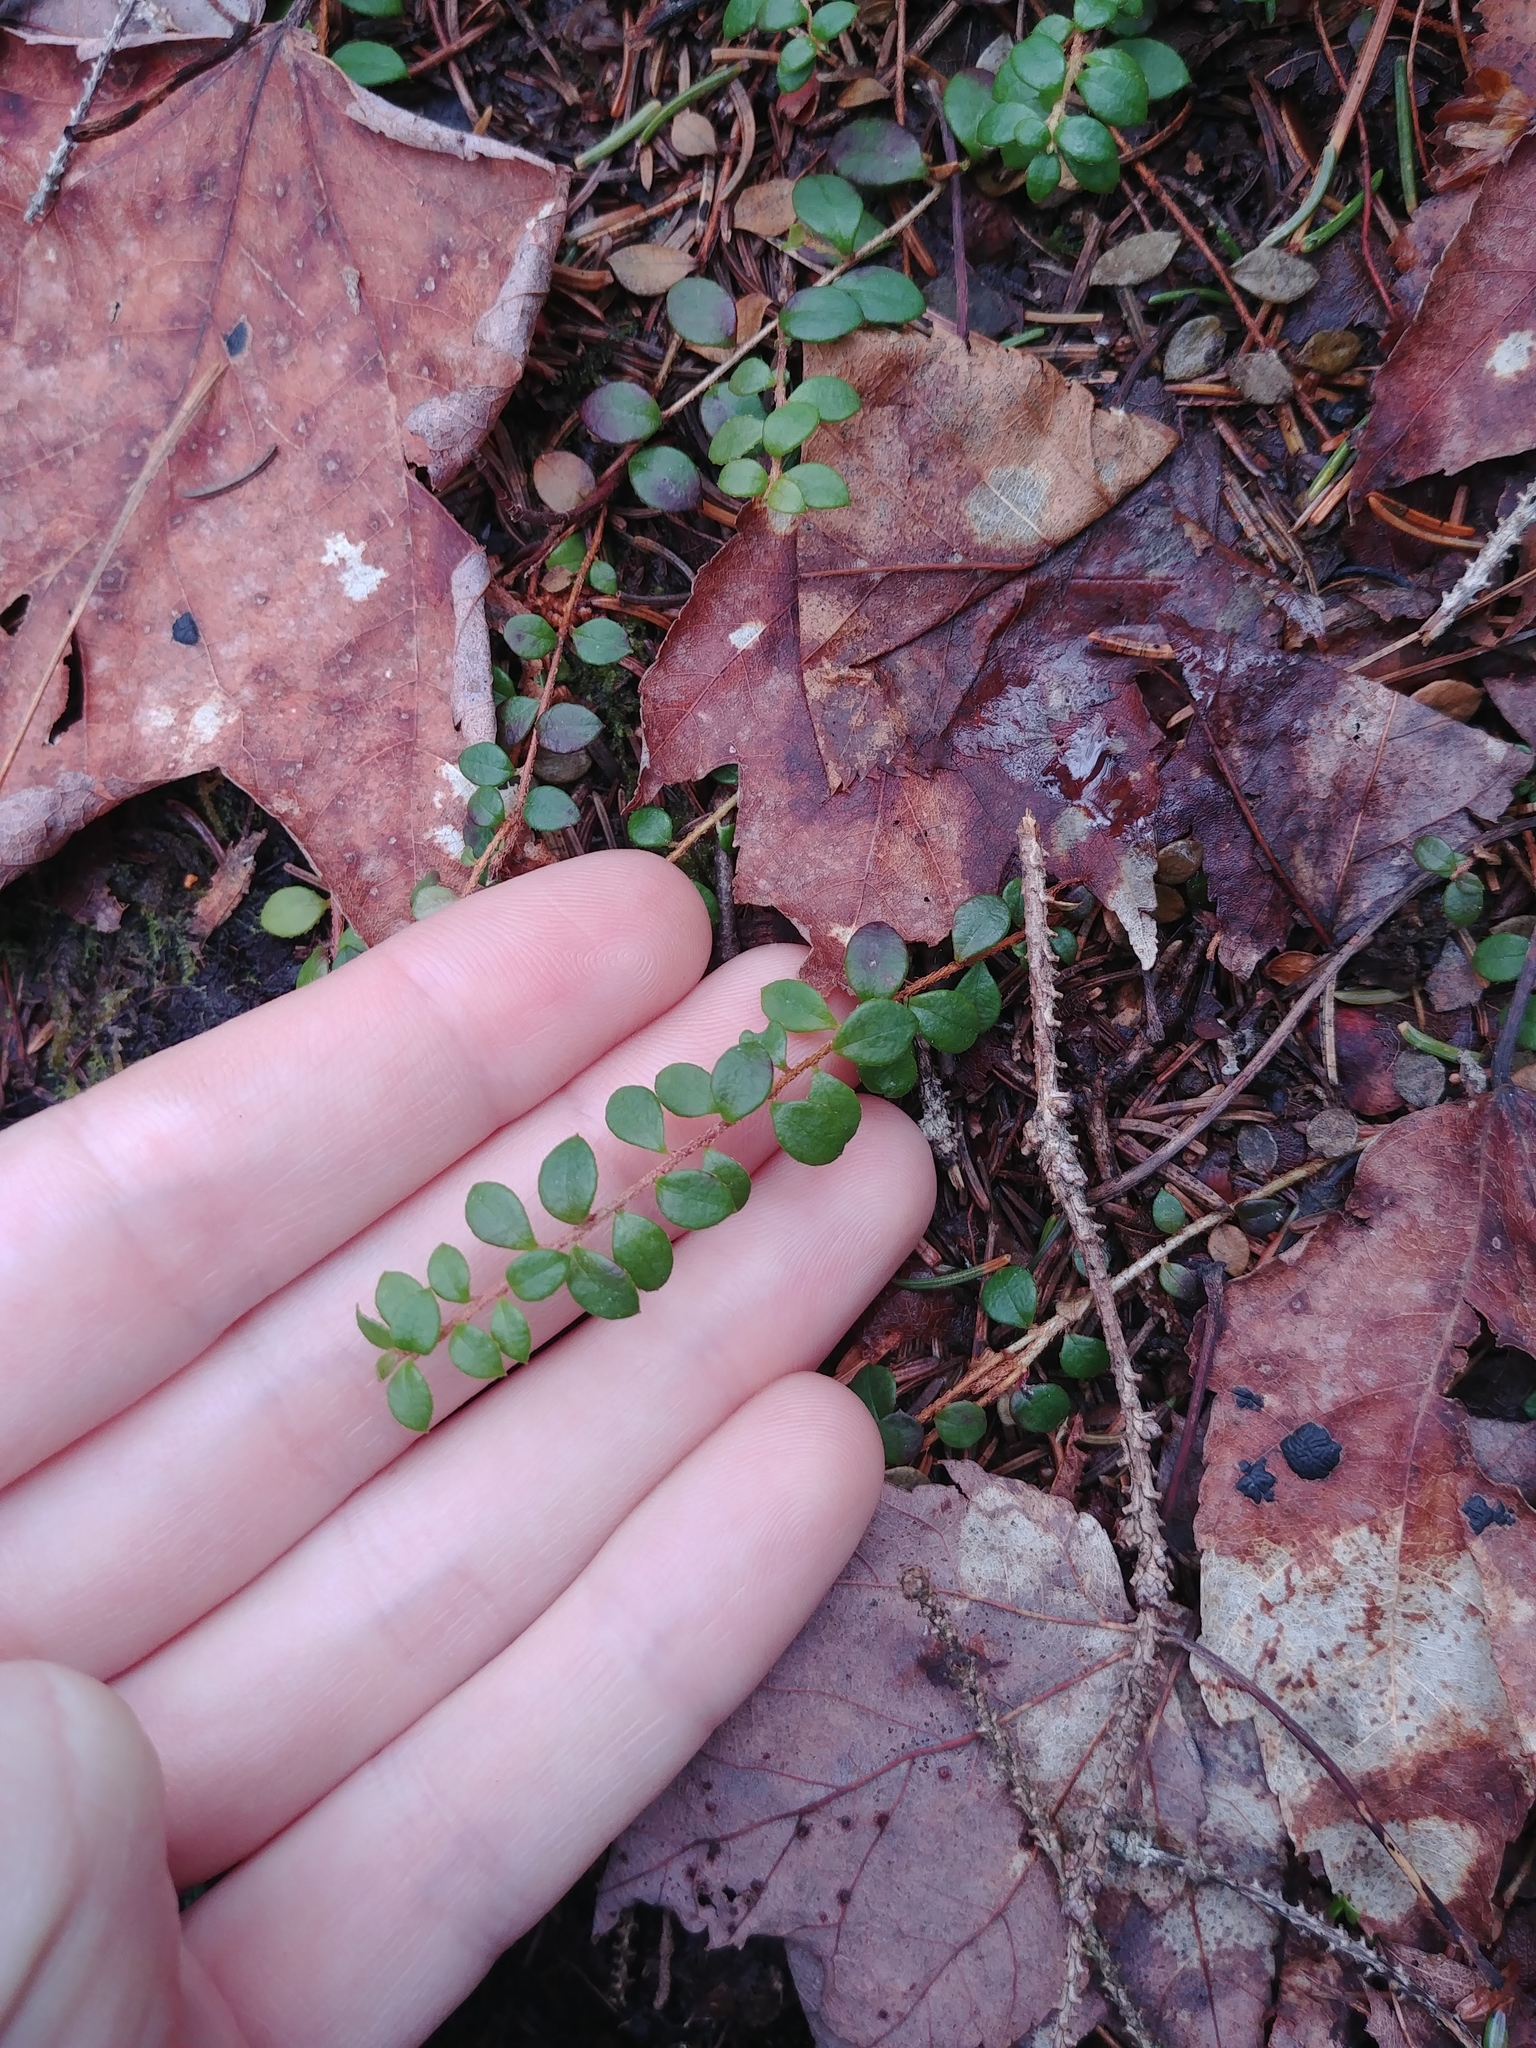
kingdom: Plantae
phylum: Tracheophyta
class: Magnoliopsida
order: Ericales
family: Ericaceae
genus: Gaultheria
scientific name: Gaultheria hispidula
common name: Cancer wintergreen
